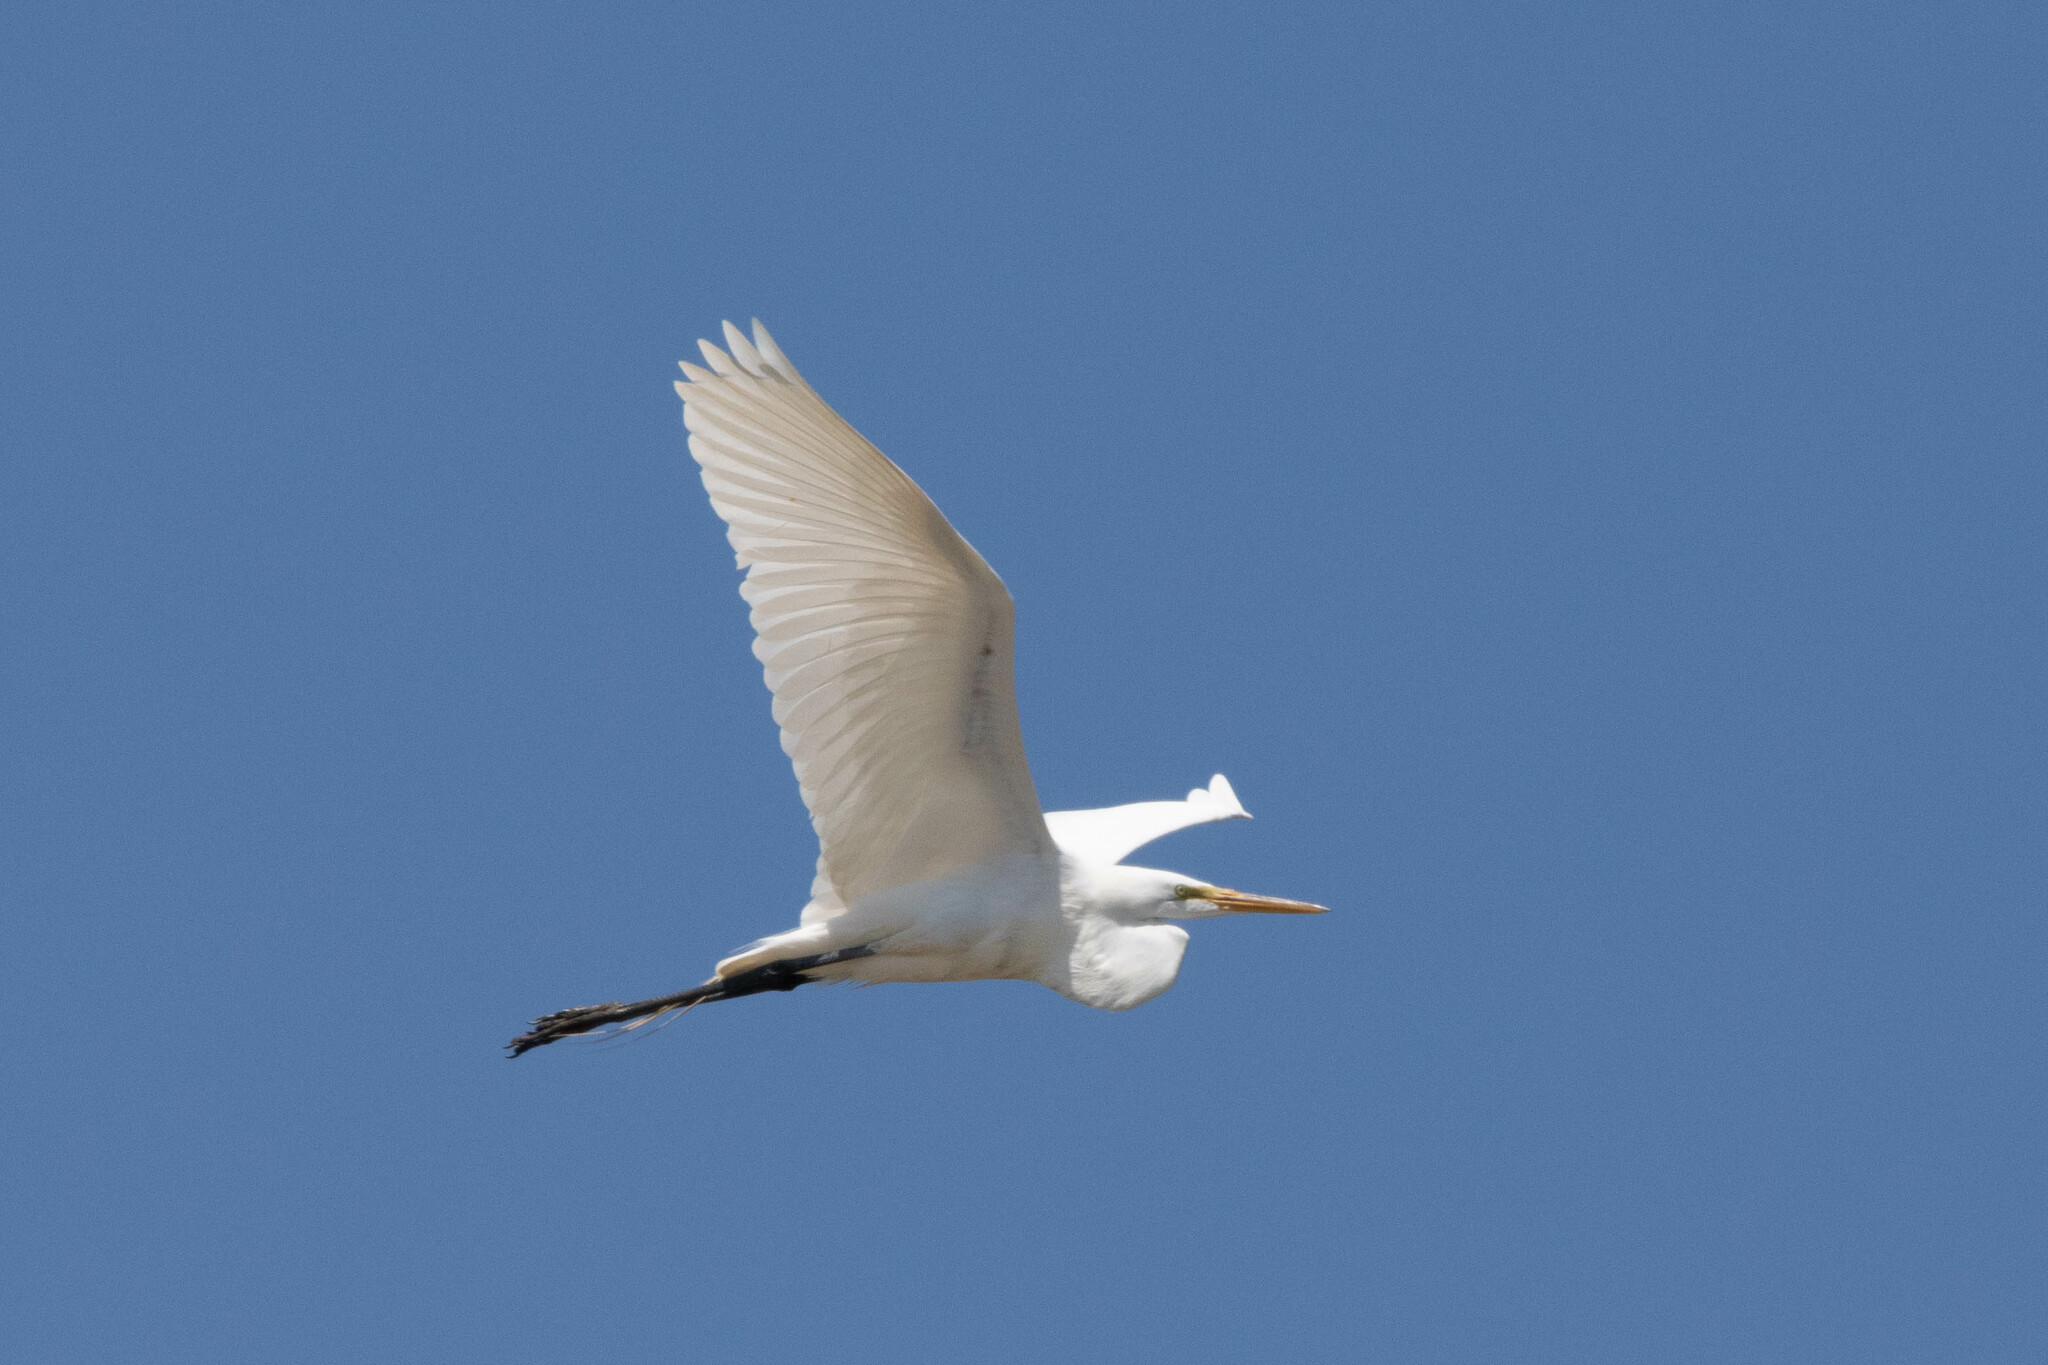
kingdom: Animalia
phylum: Chordata
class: Aves
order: Pelecaniformes
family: Ardeidae
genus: Ardea
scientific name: Ardea alba
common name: Great egret
